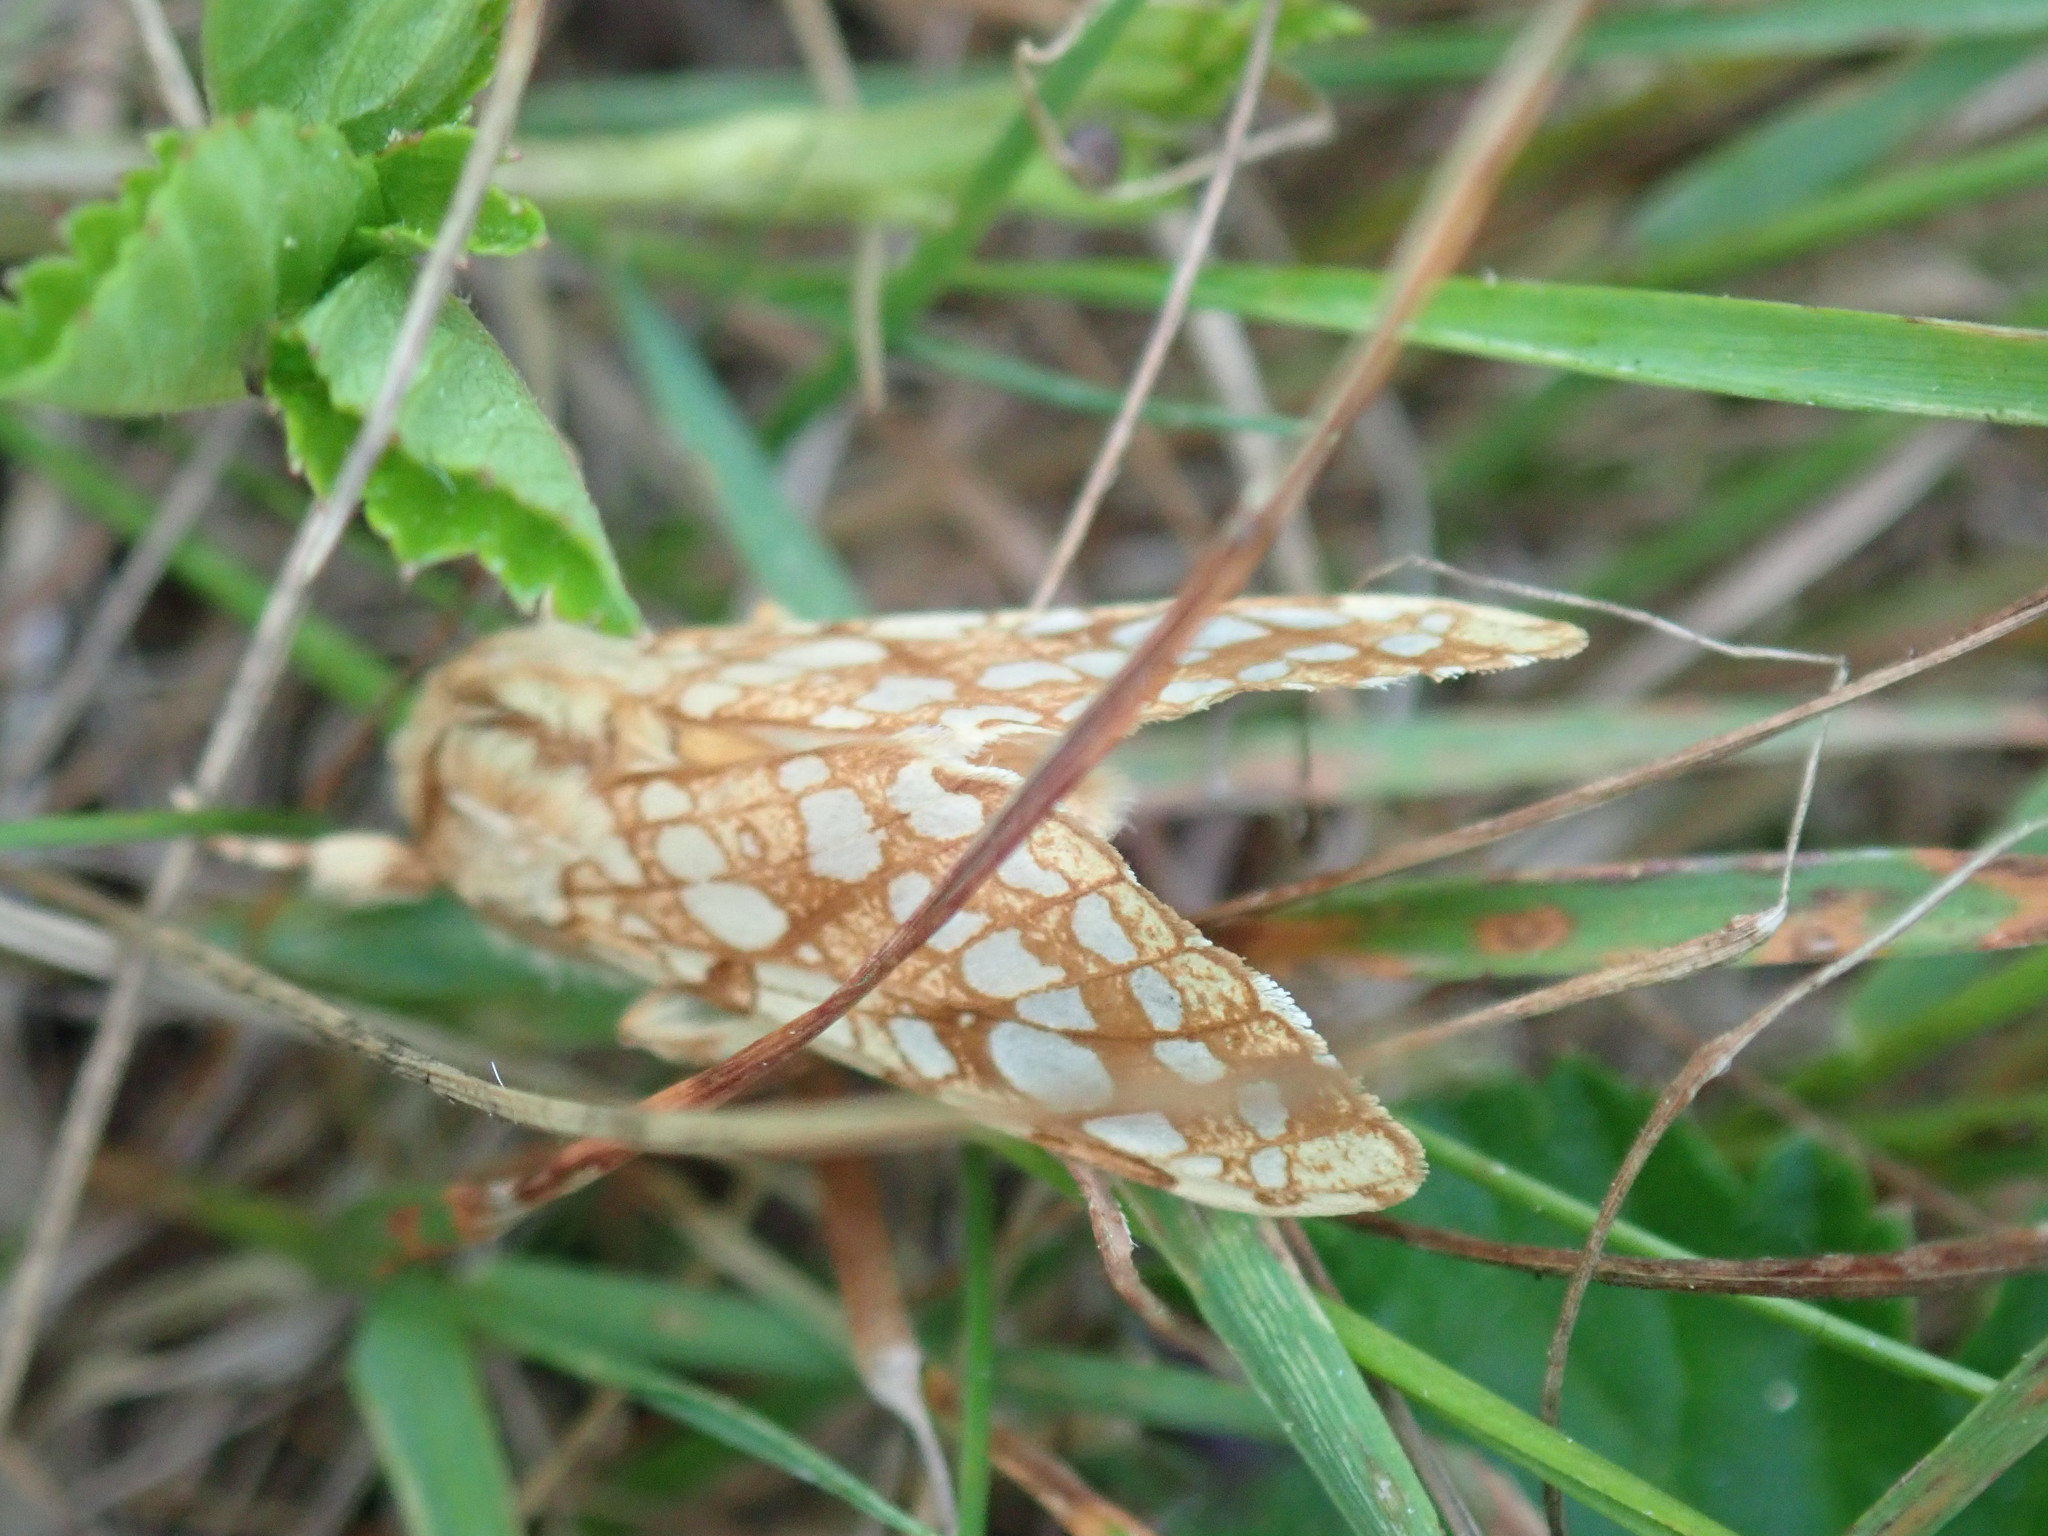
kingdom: Animalia
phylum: Arthropoda
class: Insecta
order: Lepidoptera
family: Erebidae
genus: Lophocampa
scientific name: Lophocampa caryae
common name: Hickory tussock moth
